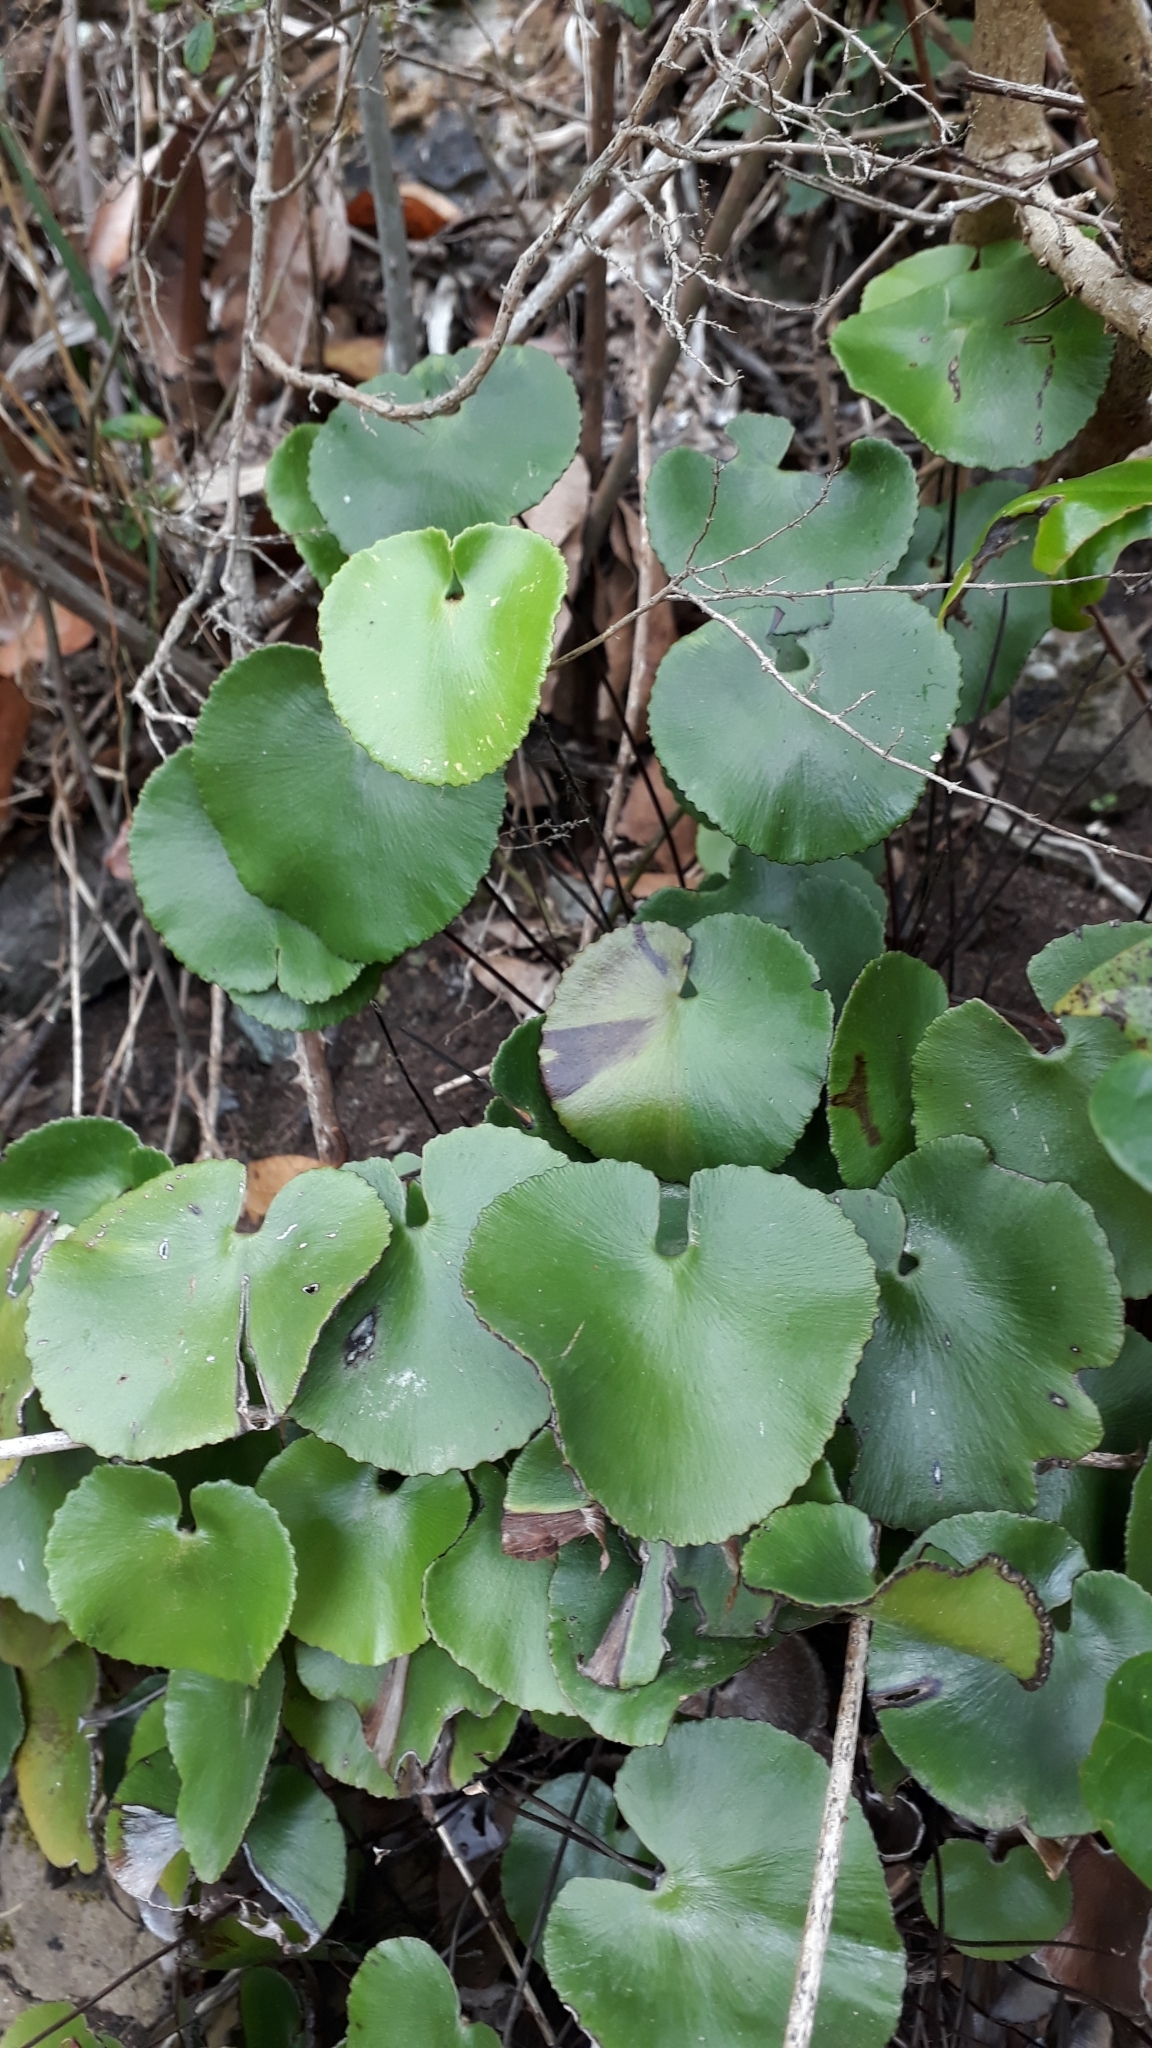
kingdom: Plantae
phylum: Tracheophyta
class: Polypodiopsida
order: Polypodiales
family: Pteridaceae
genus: Adiantum
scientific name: Adiantum reniforme
